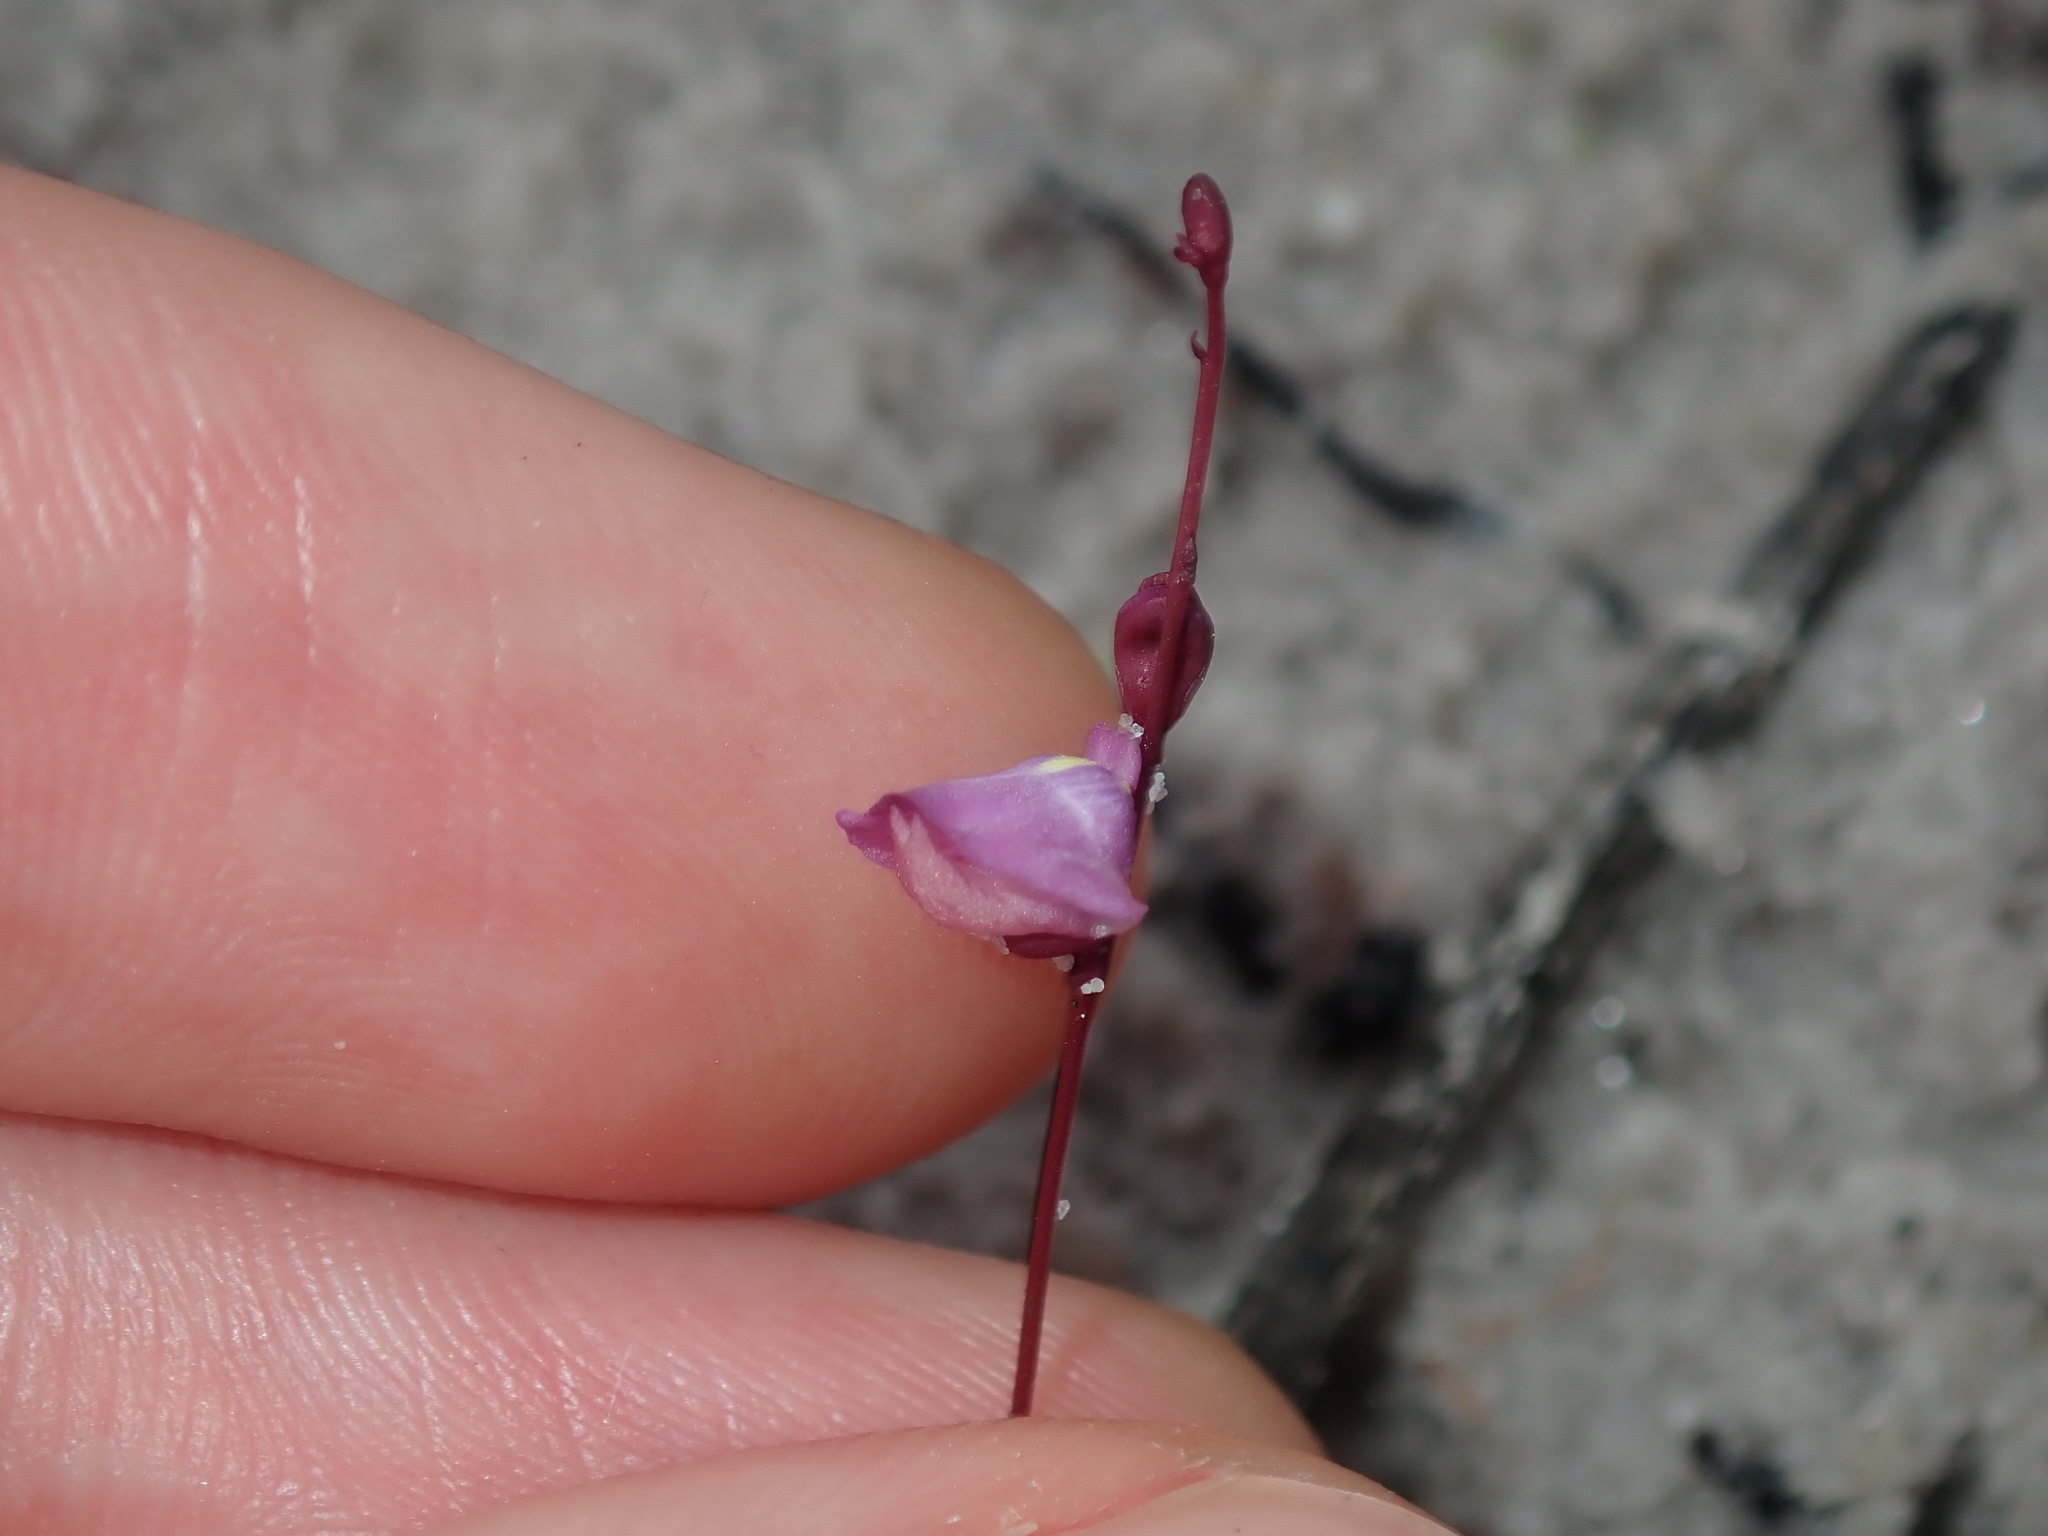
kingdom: Plantae
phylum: Tracheophyta
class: Magnoliopsida
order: Lamiales
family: Lentibulariaceae
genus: Utricularia
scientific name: Utricularia lateriflora
